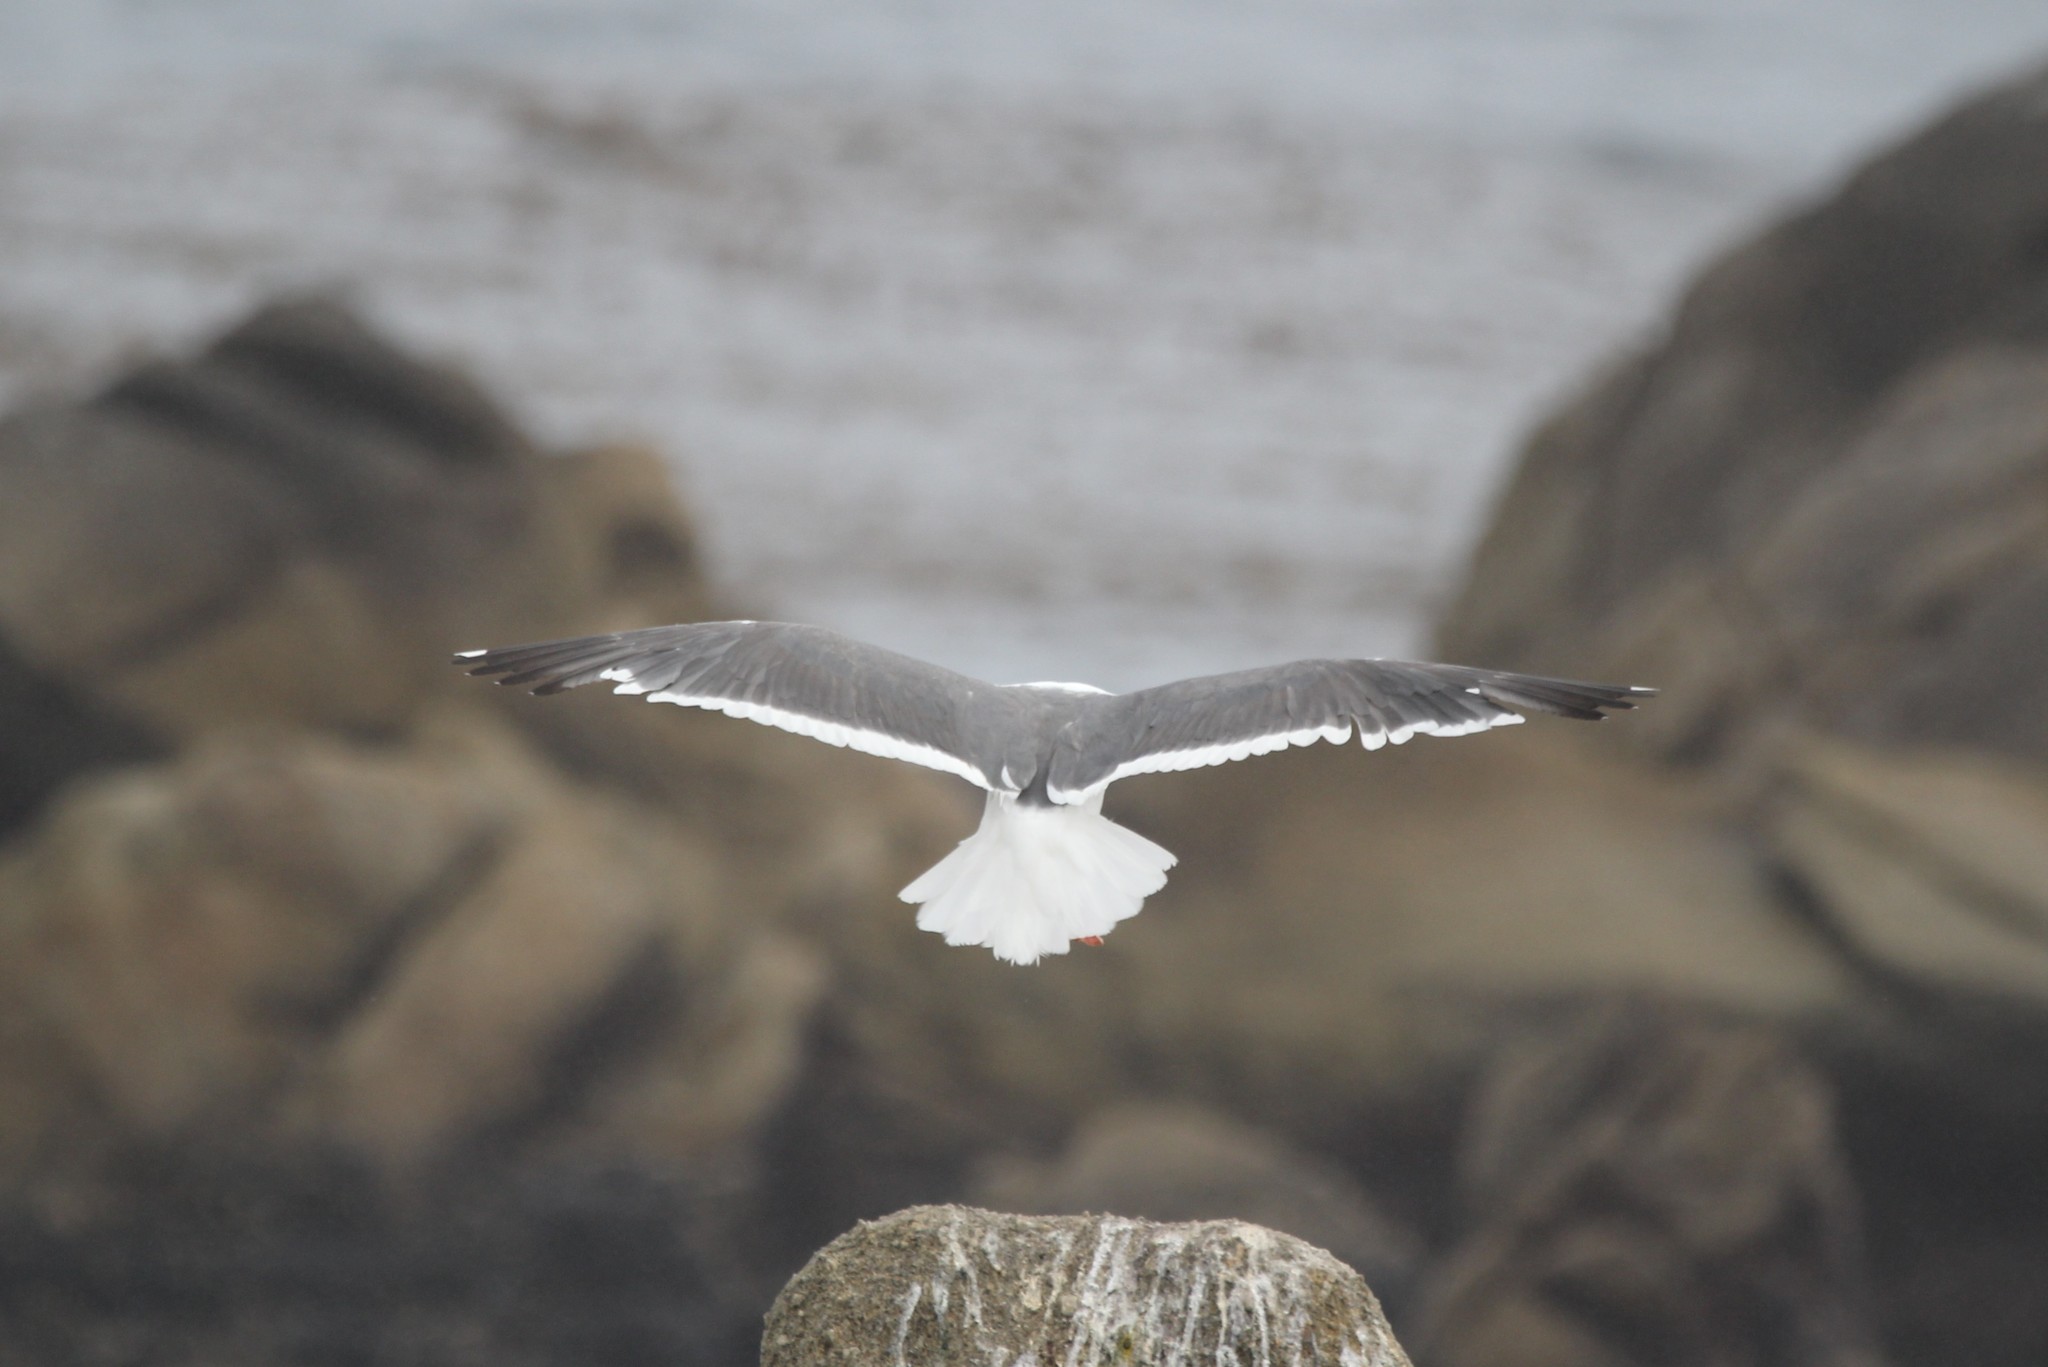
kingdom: Animalia
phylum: Chordata
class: Aves
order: Charadriiformes
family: Laridae
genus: Larus
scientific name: Larus occidentalis
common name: Western gull
